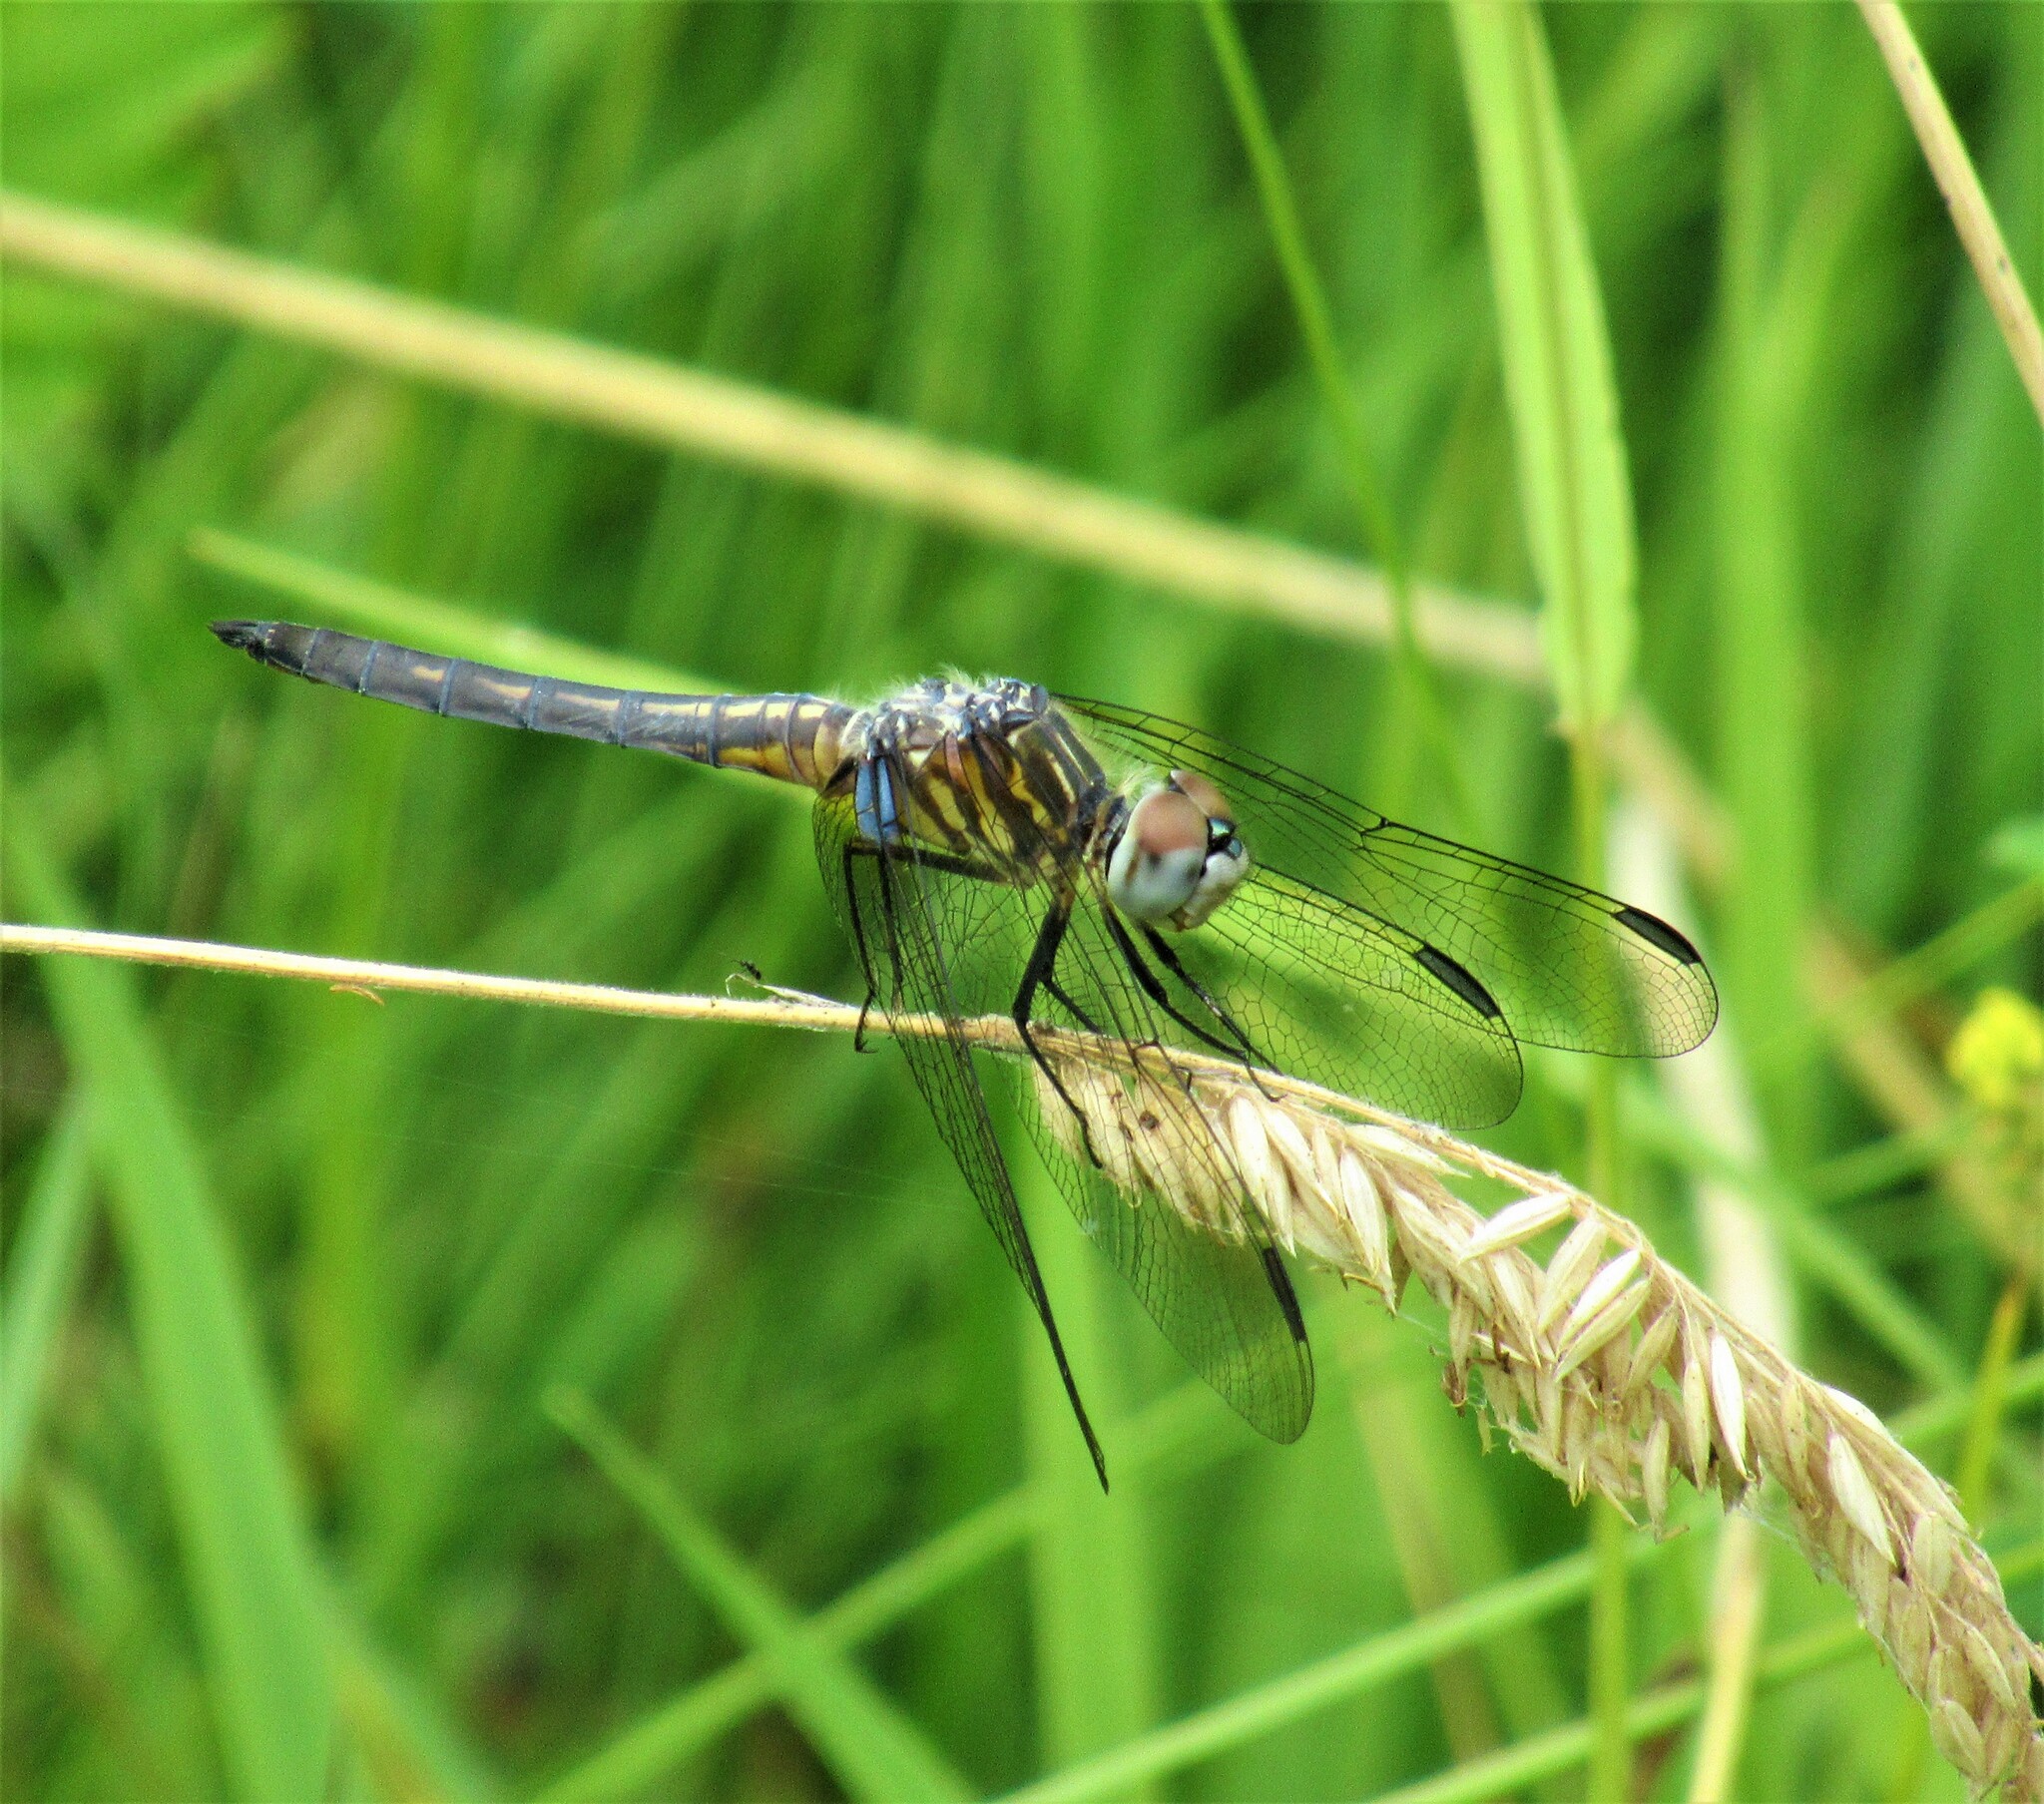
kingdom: Animalia
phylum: Arthropoda
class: Insecta
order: Odonata
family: Libellulidae
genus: Pachydiplax
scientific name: Pachydiplax longipennis
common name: Blue dasher
